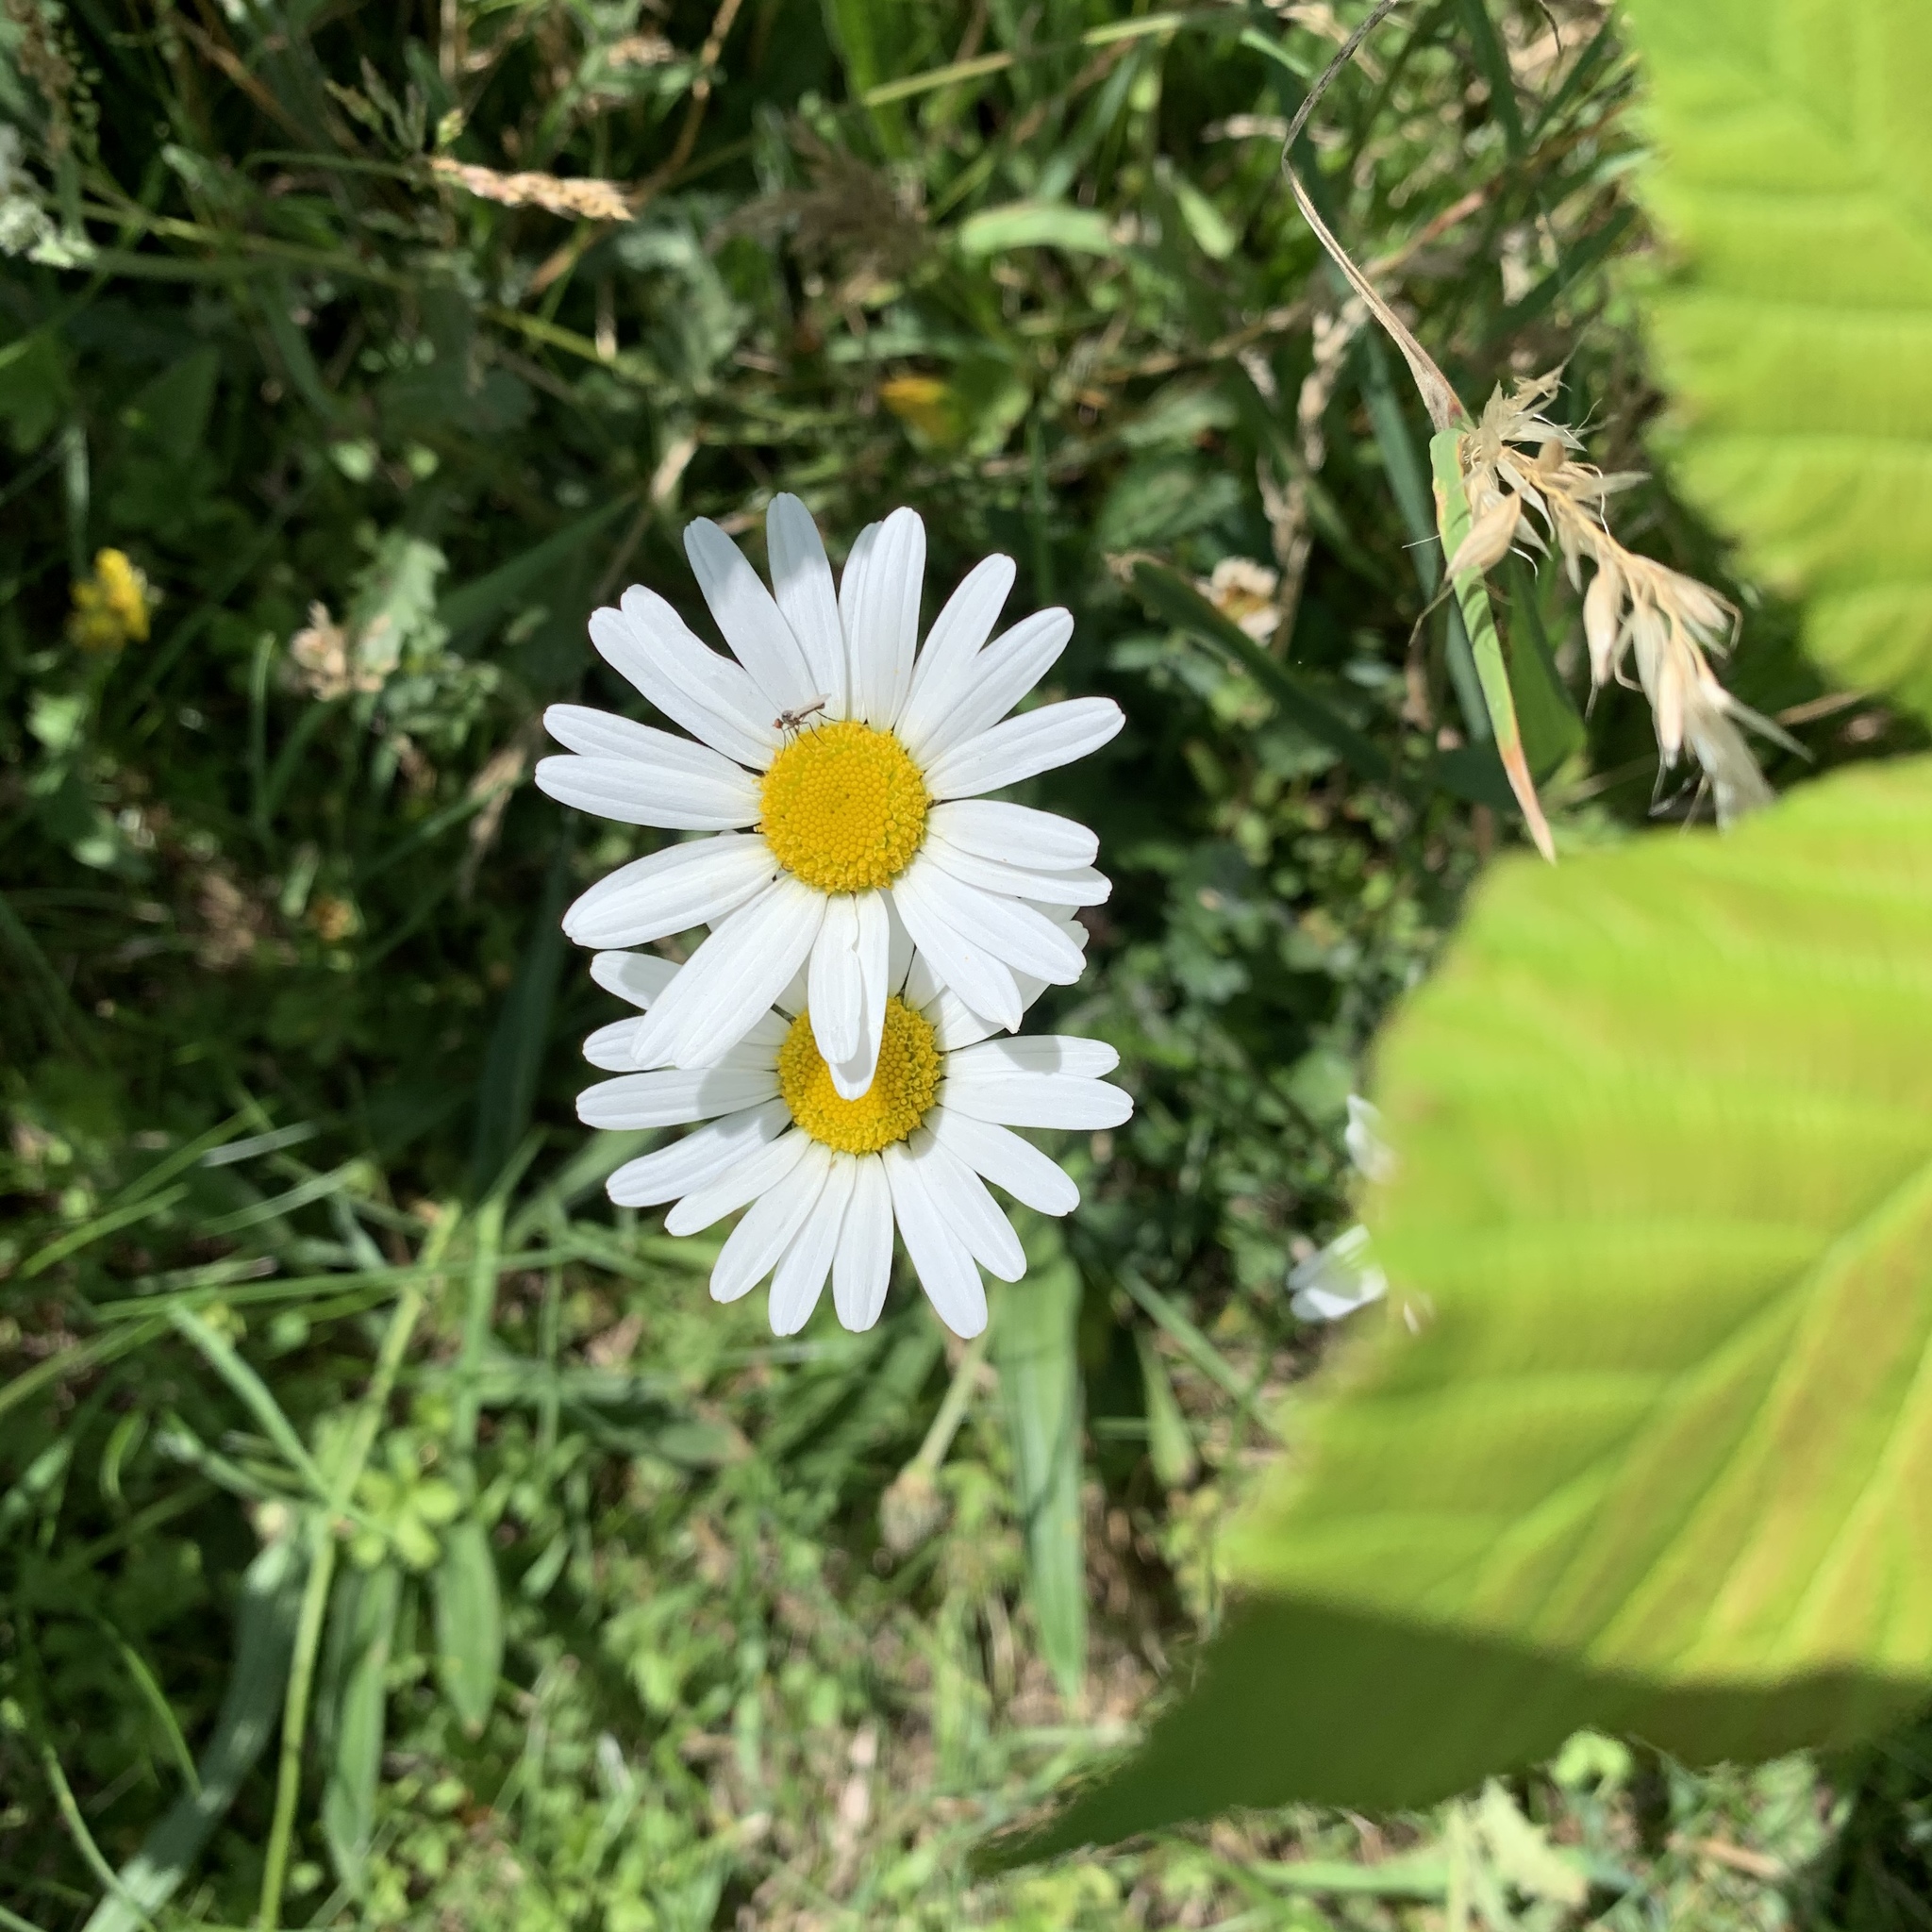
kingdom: Plantae
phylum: Tracheophyta
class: Magnoliopsida
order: Asterales
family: Asteraceae
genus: Leucanthemum
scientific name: Leucanthemum vulgare
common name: Oxeye daisy
